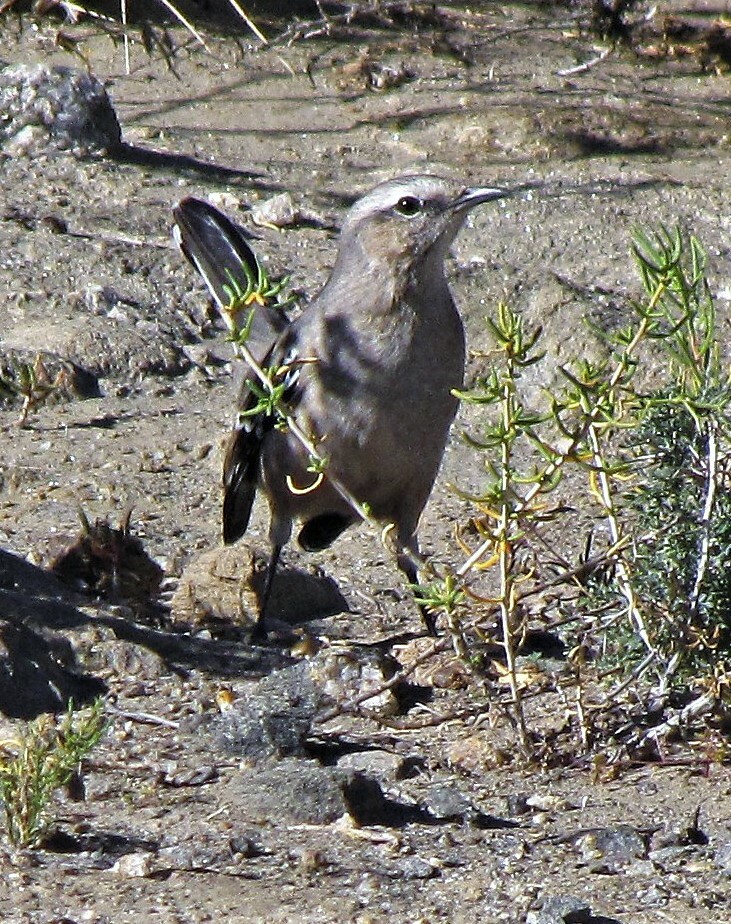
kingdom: Animalia
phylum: Chordata
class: Aves
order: Passeriformes
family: Mimidae
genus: Mimus
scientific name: Mimus patagonicus
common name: Patagonian mockingbird
